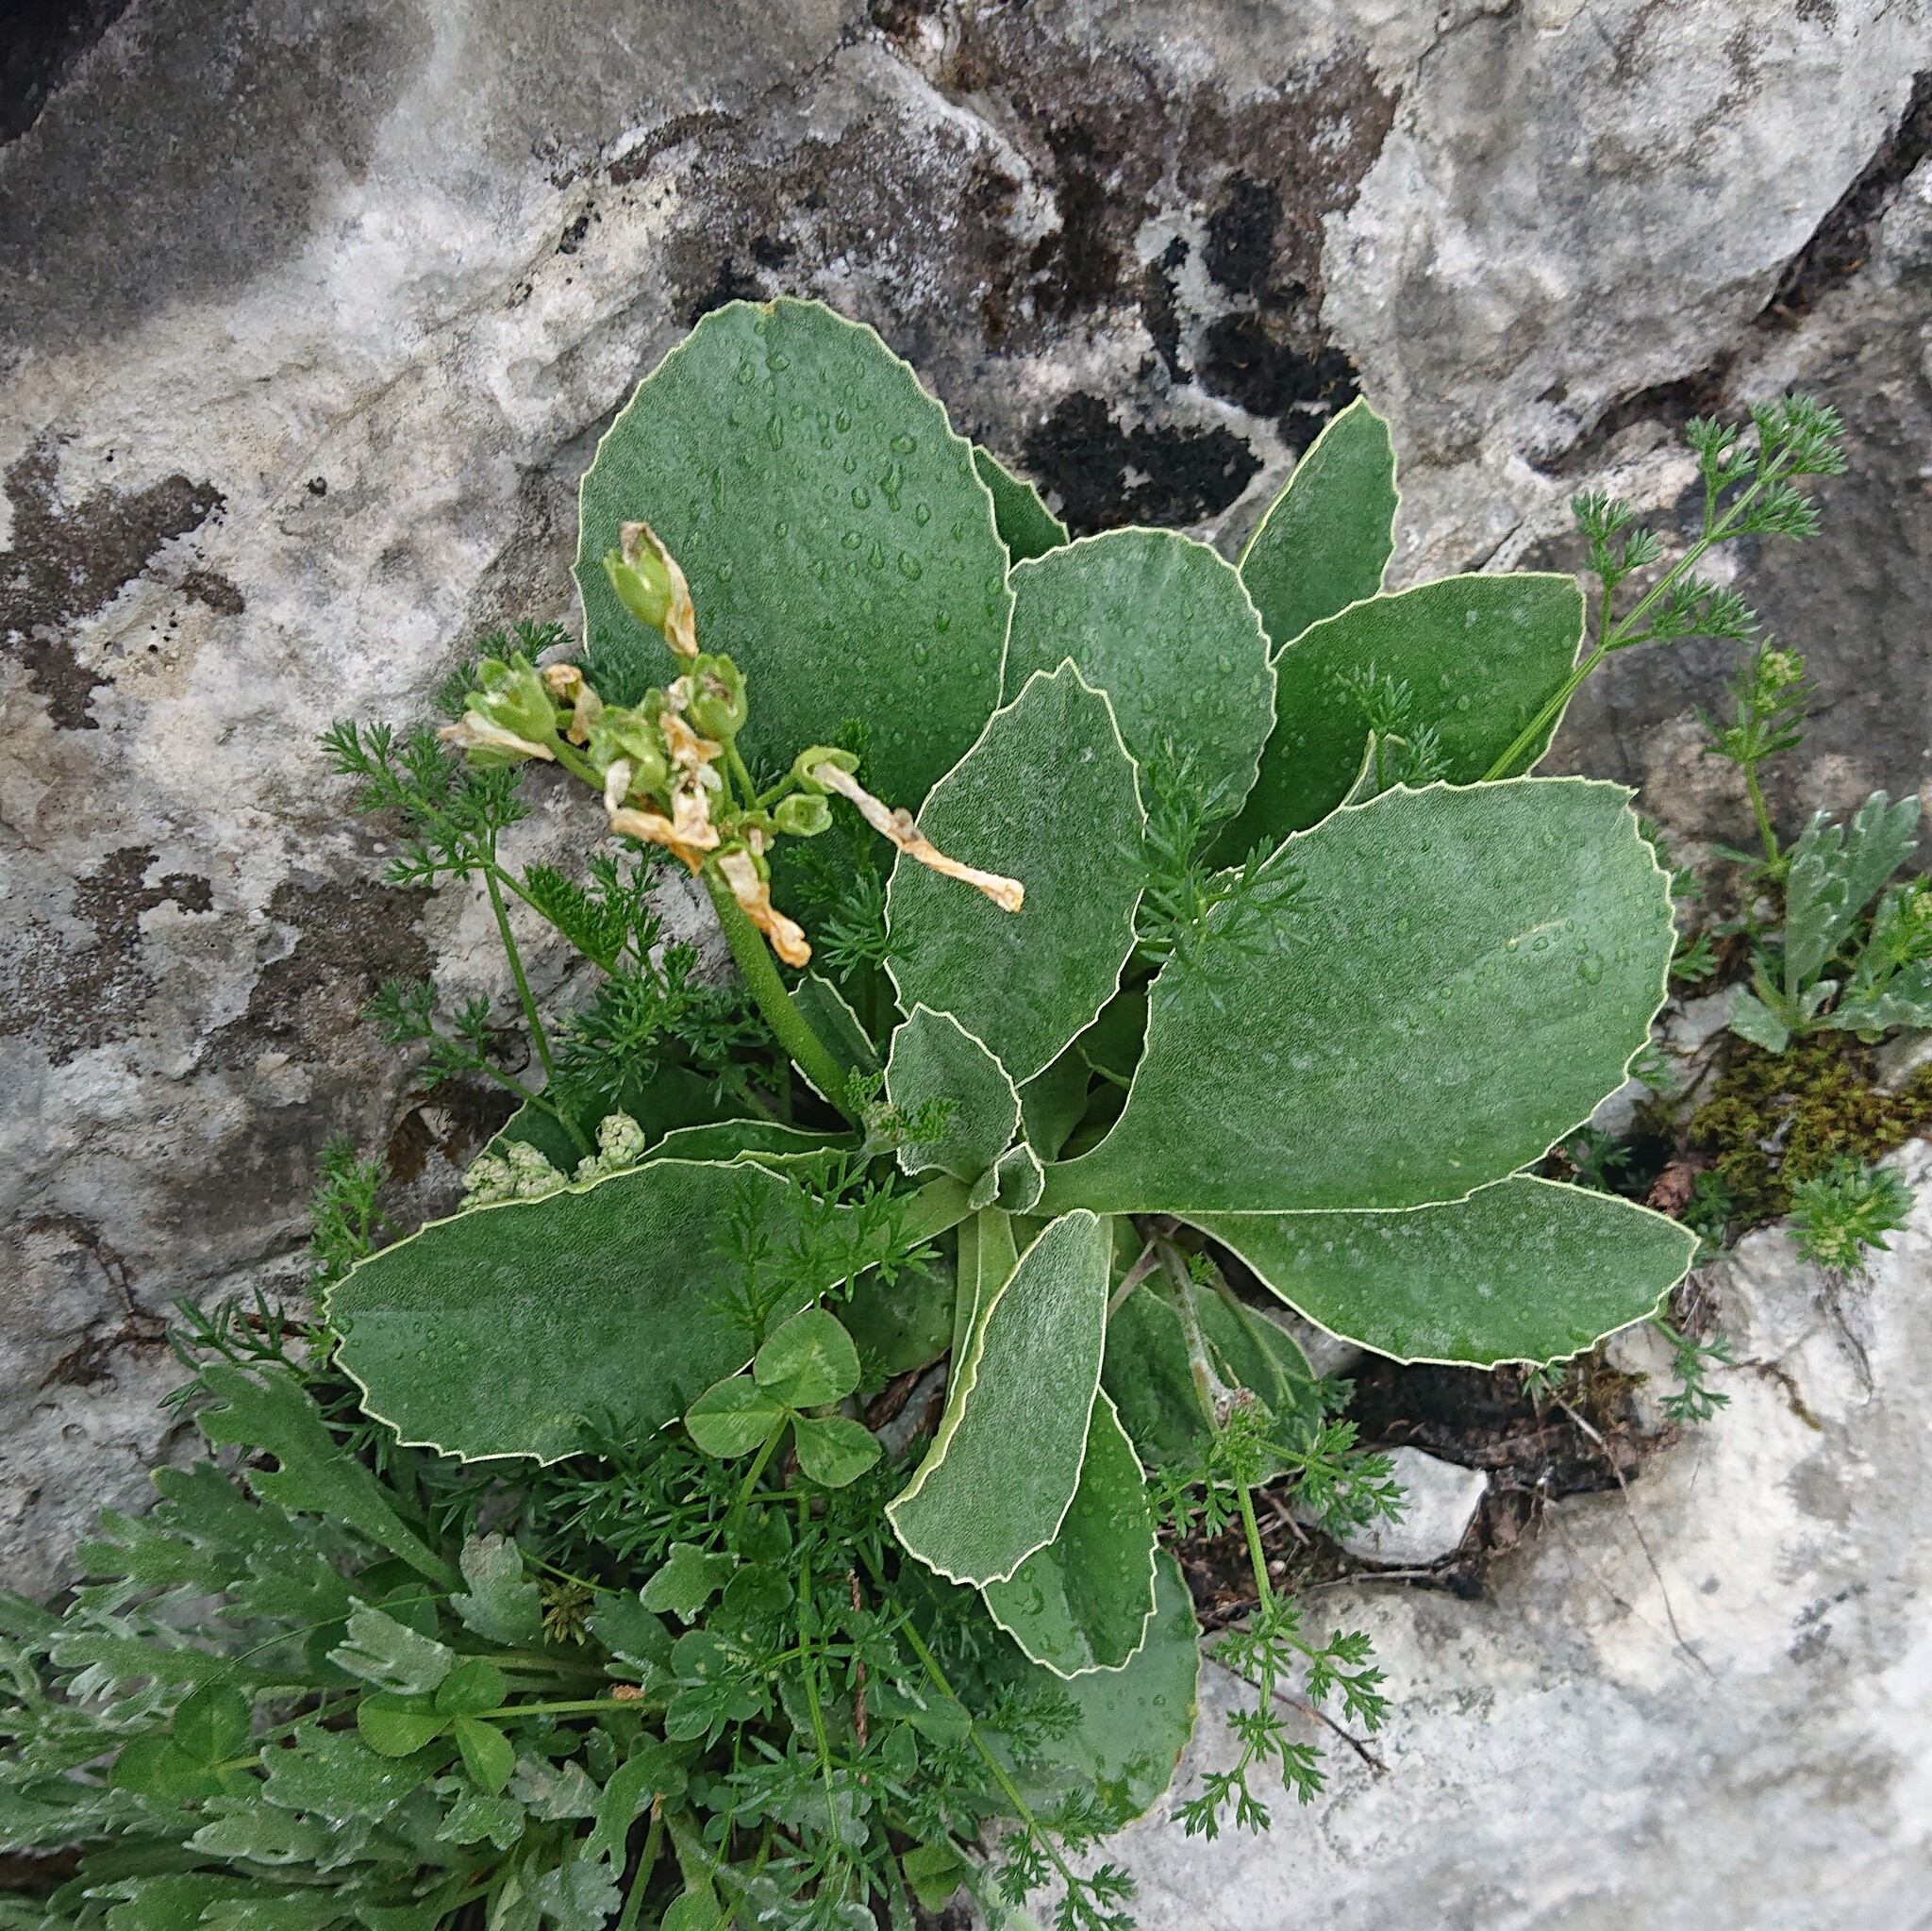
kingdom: Plantae
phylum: Tracheophyta
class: Magnoliopsida
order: Ericales
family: Primulaceae
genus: Primula
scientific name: Primula auricula
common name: Auricula
